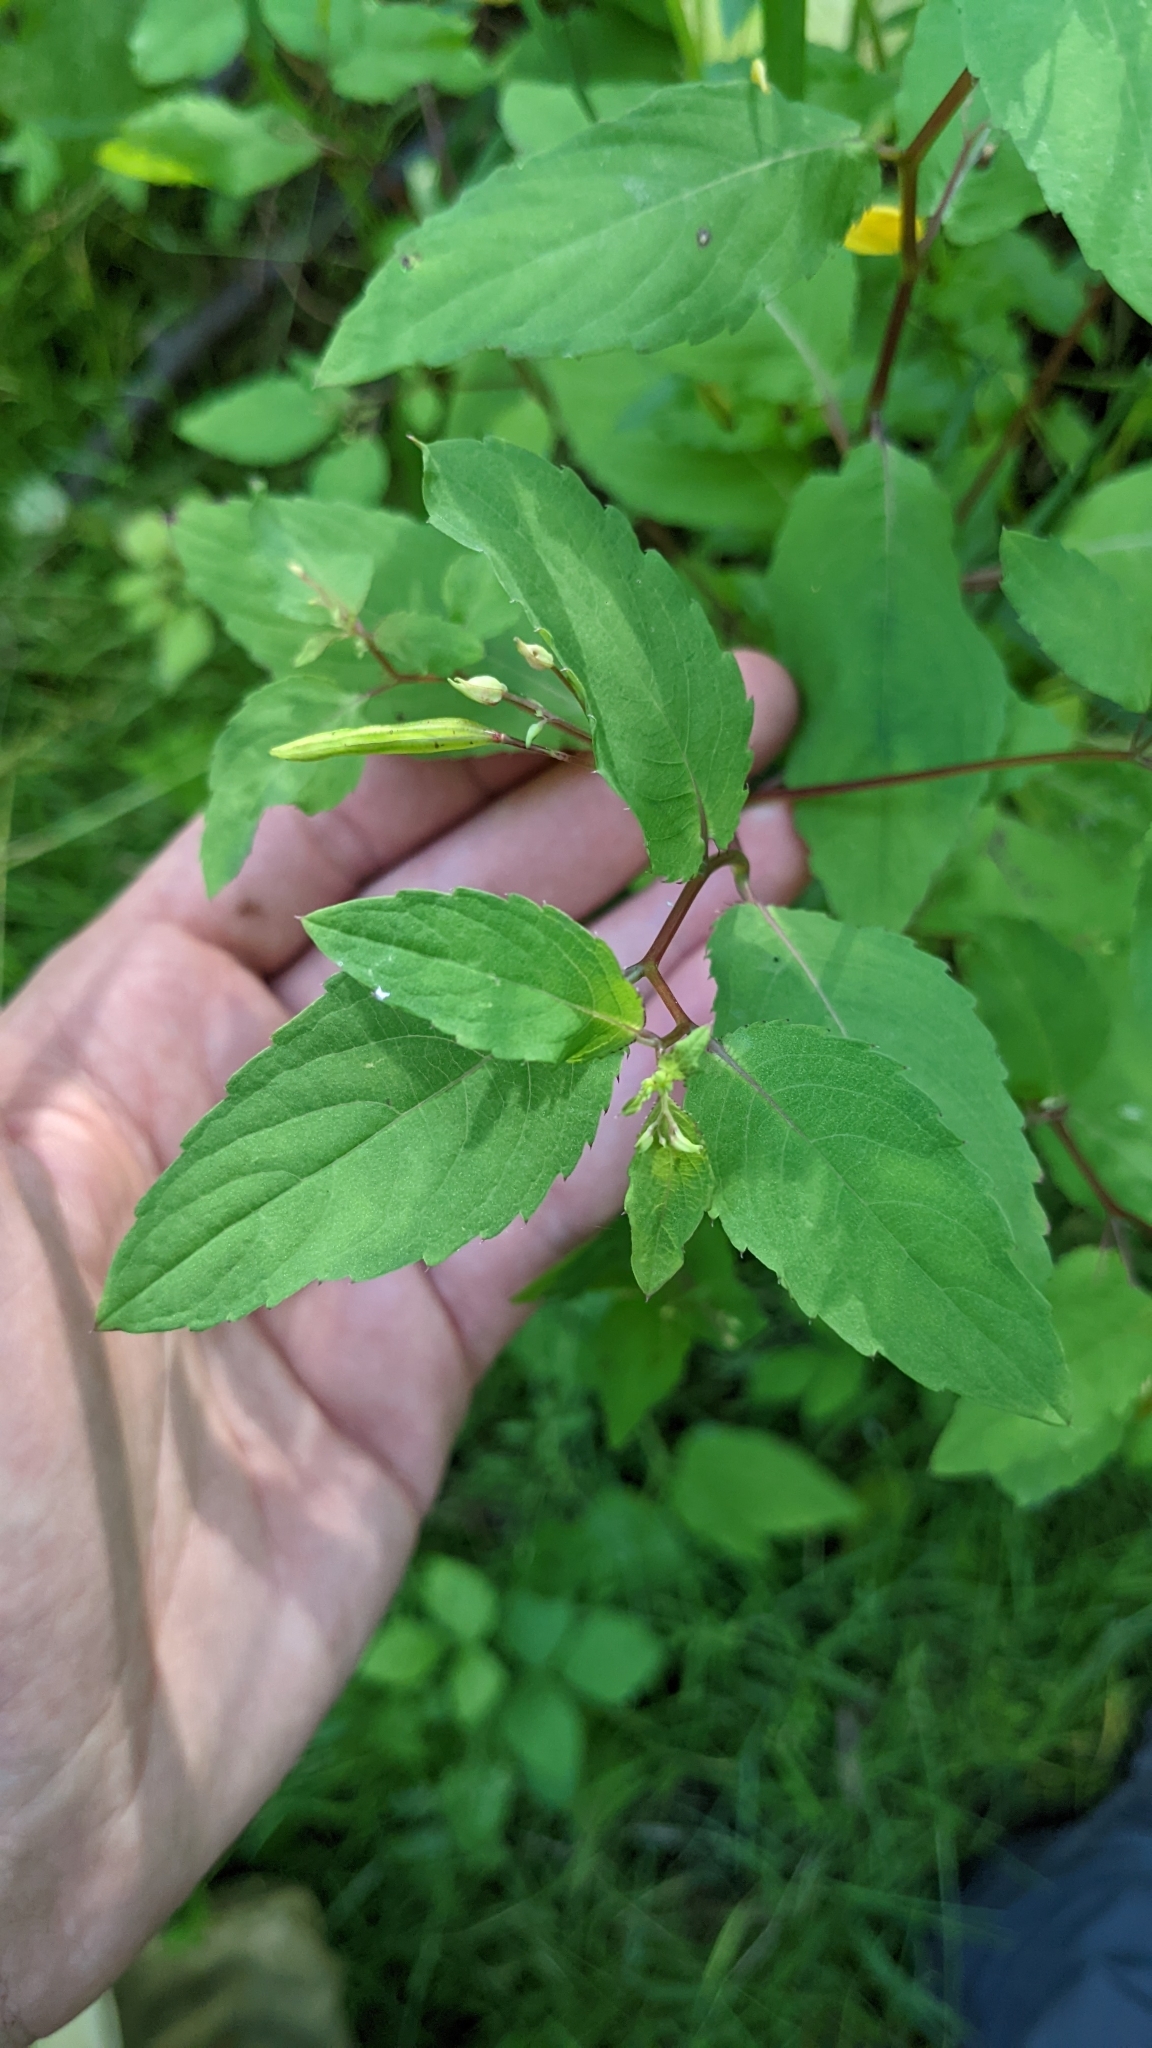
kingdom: Plantae
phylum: Tracheophyta
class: Magnoliopsida
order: Ericales
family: Balsaminaceae
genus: Impatiens
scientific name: Impatiens noli-tangere
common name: Touch-me-not balsam
